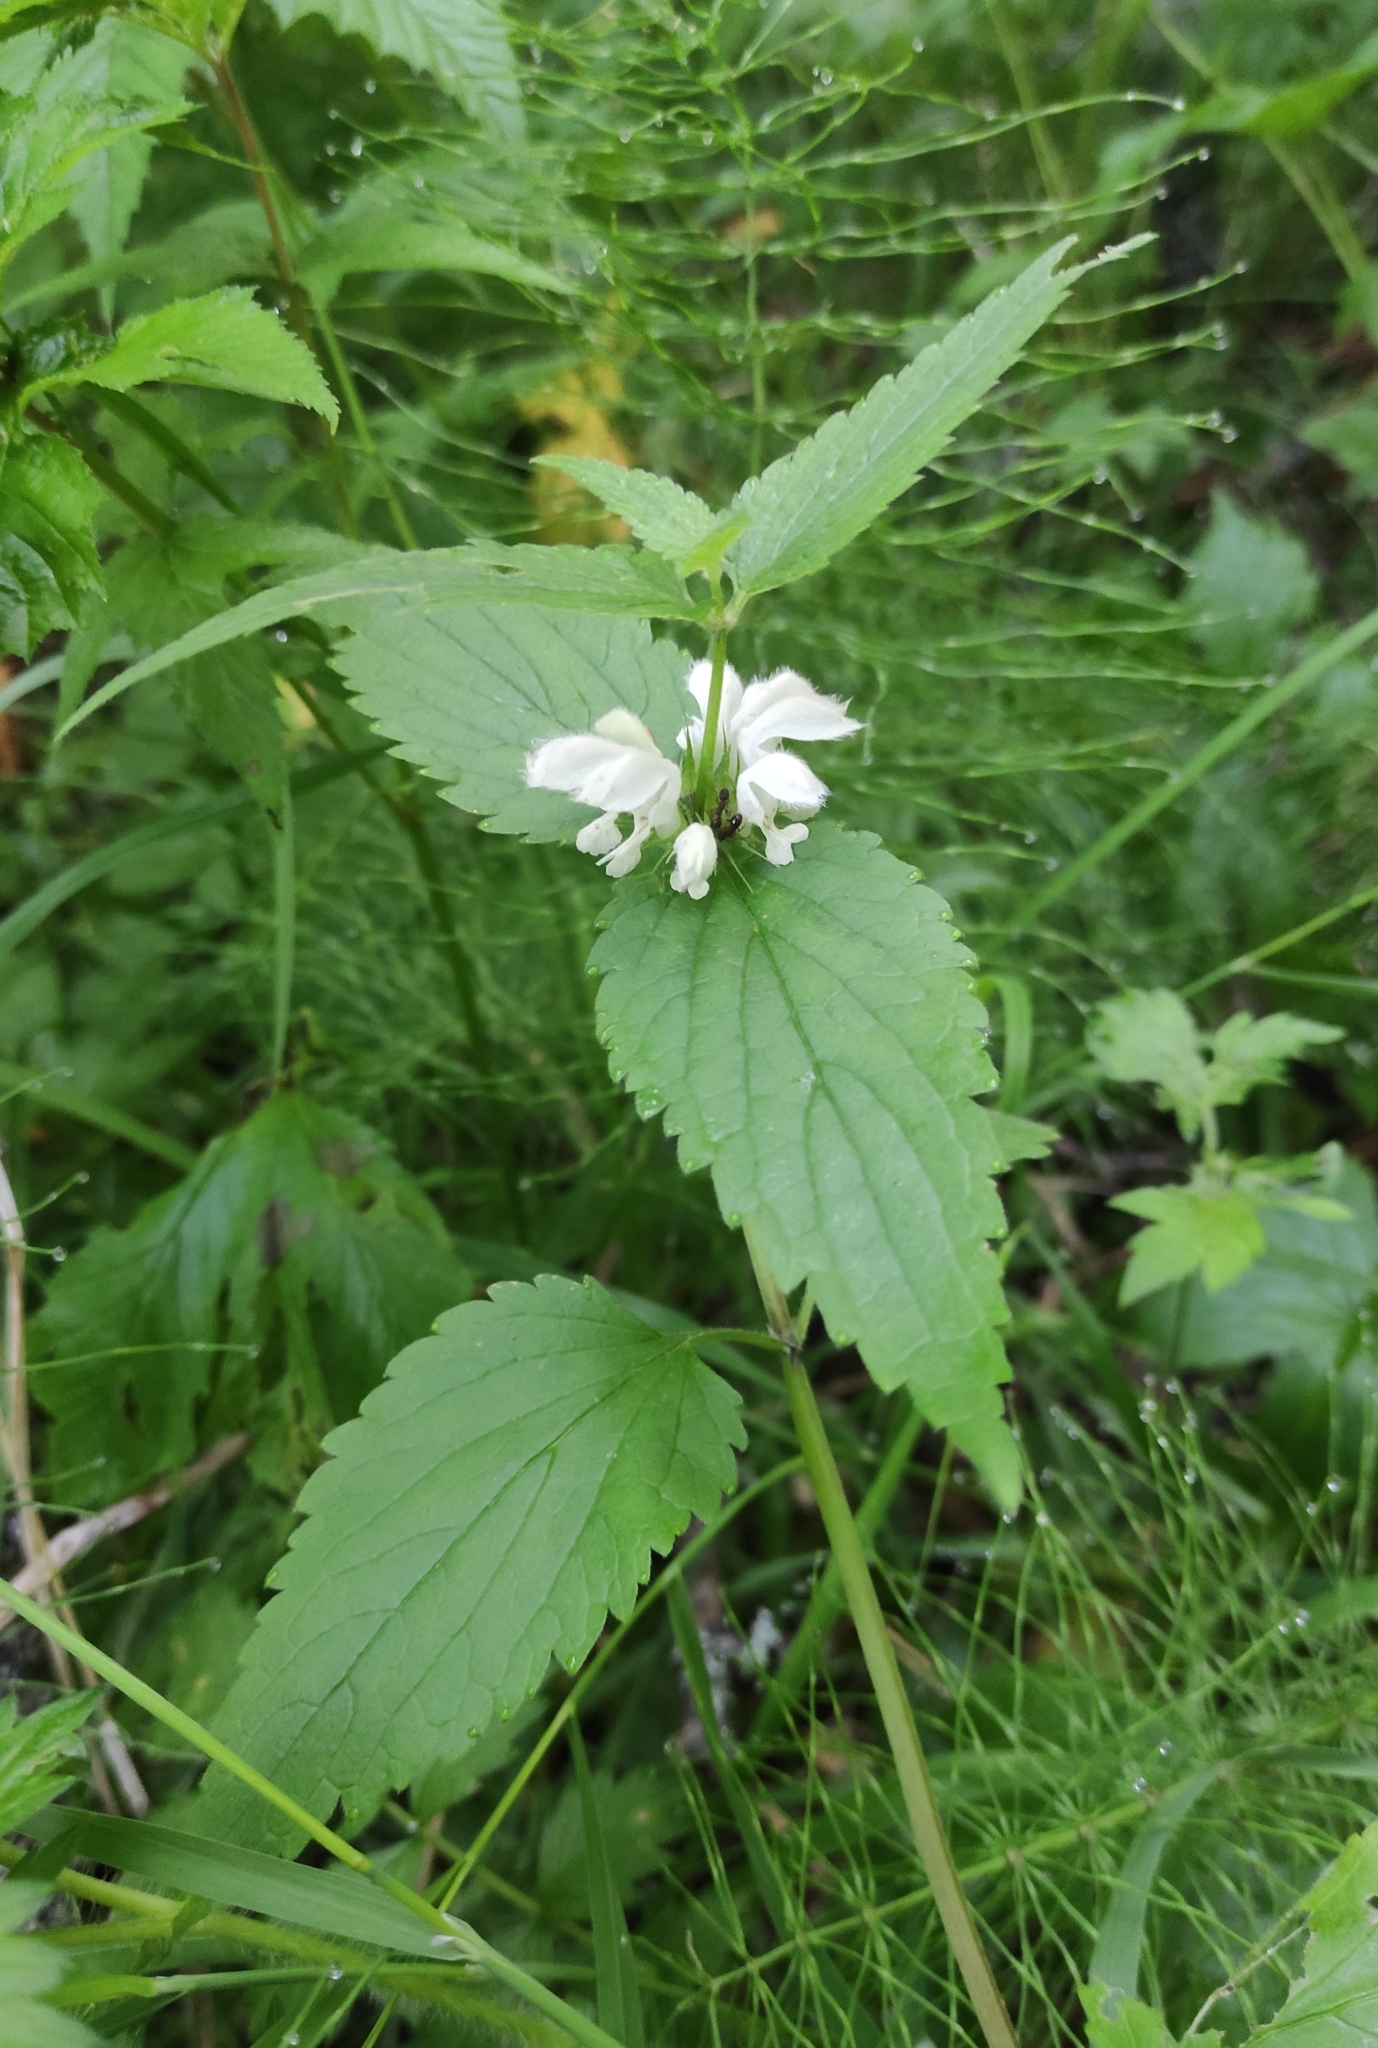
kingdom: Plantae
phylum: Tracheophyta
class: Magnoliopsida
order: Lamiales
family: Lamiaceae
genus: Lamium
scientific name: Lamium album
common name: White dead-nettle
